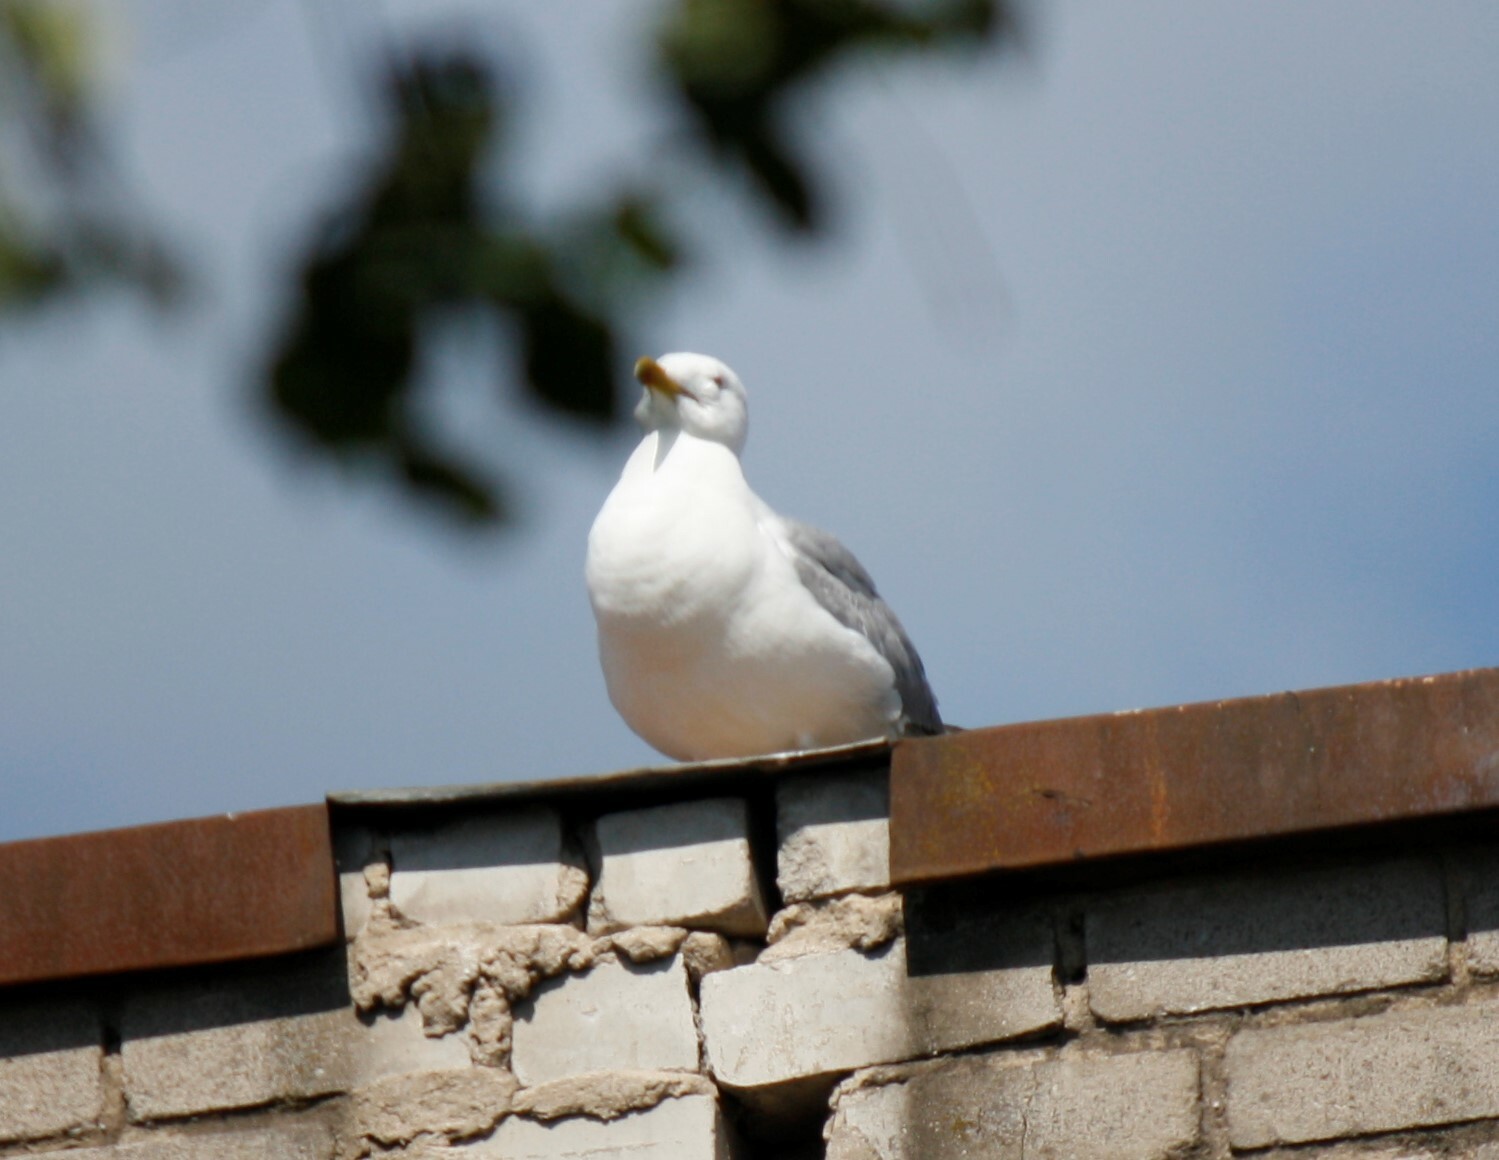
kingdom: Animalia
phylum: Chordata
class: Aves
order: Charadriiformes
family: Laridae
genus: Larus
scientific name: Larus argentatus
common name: Herring gull
